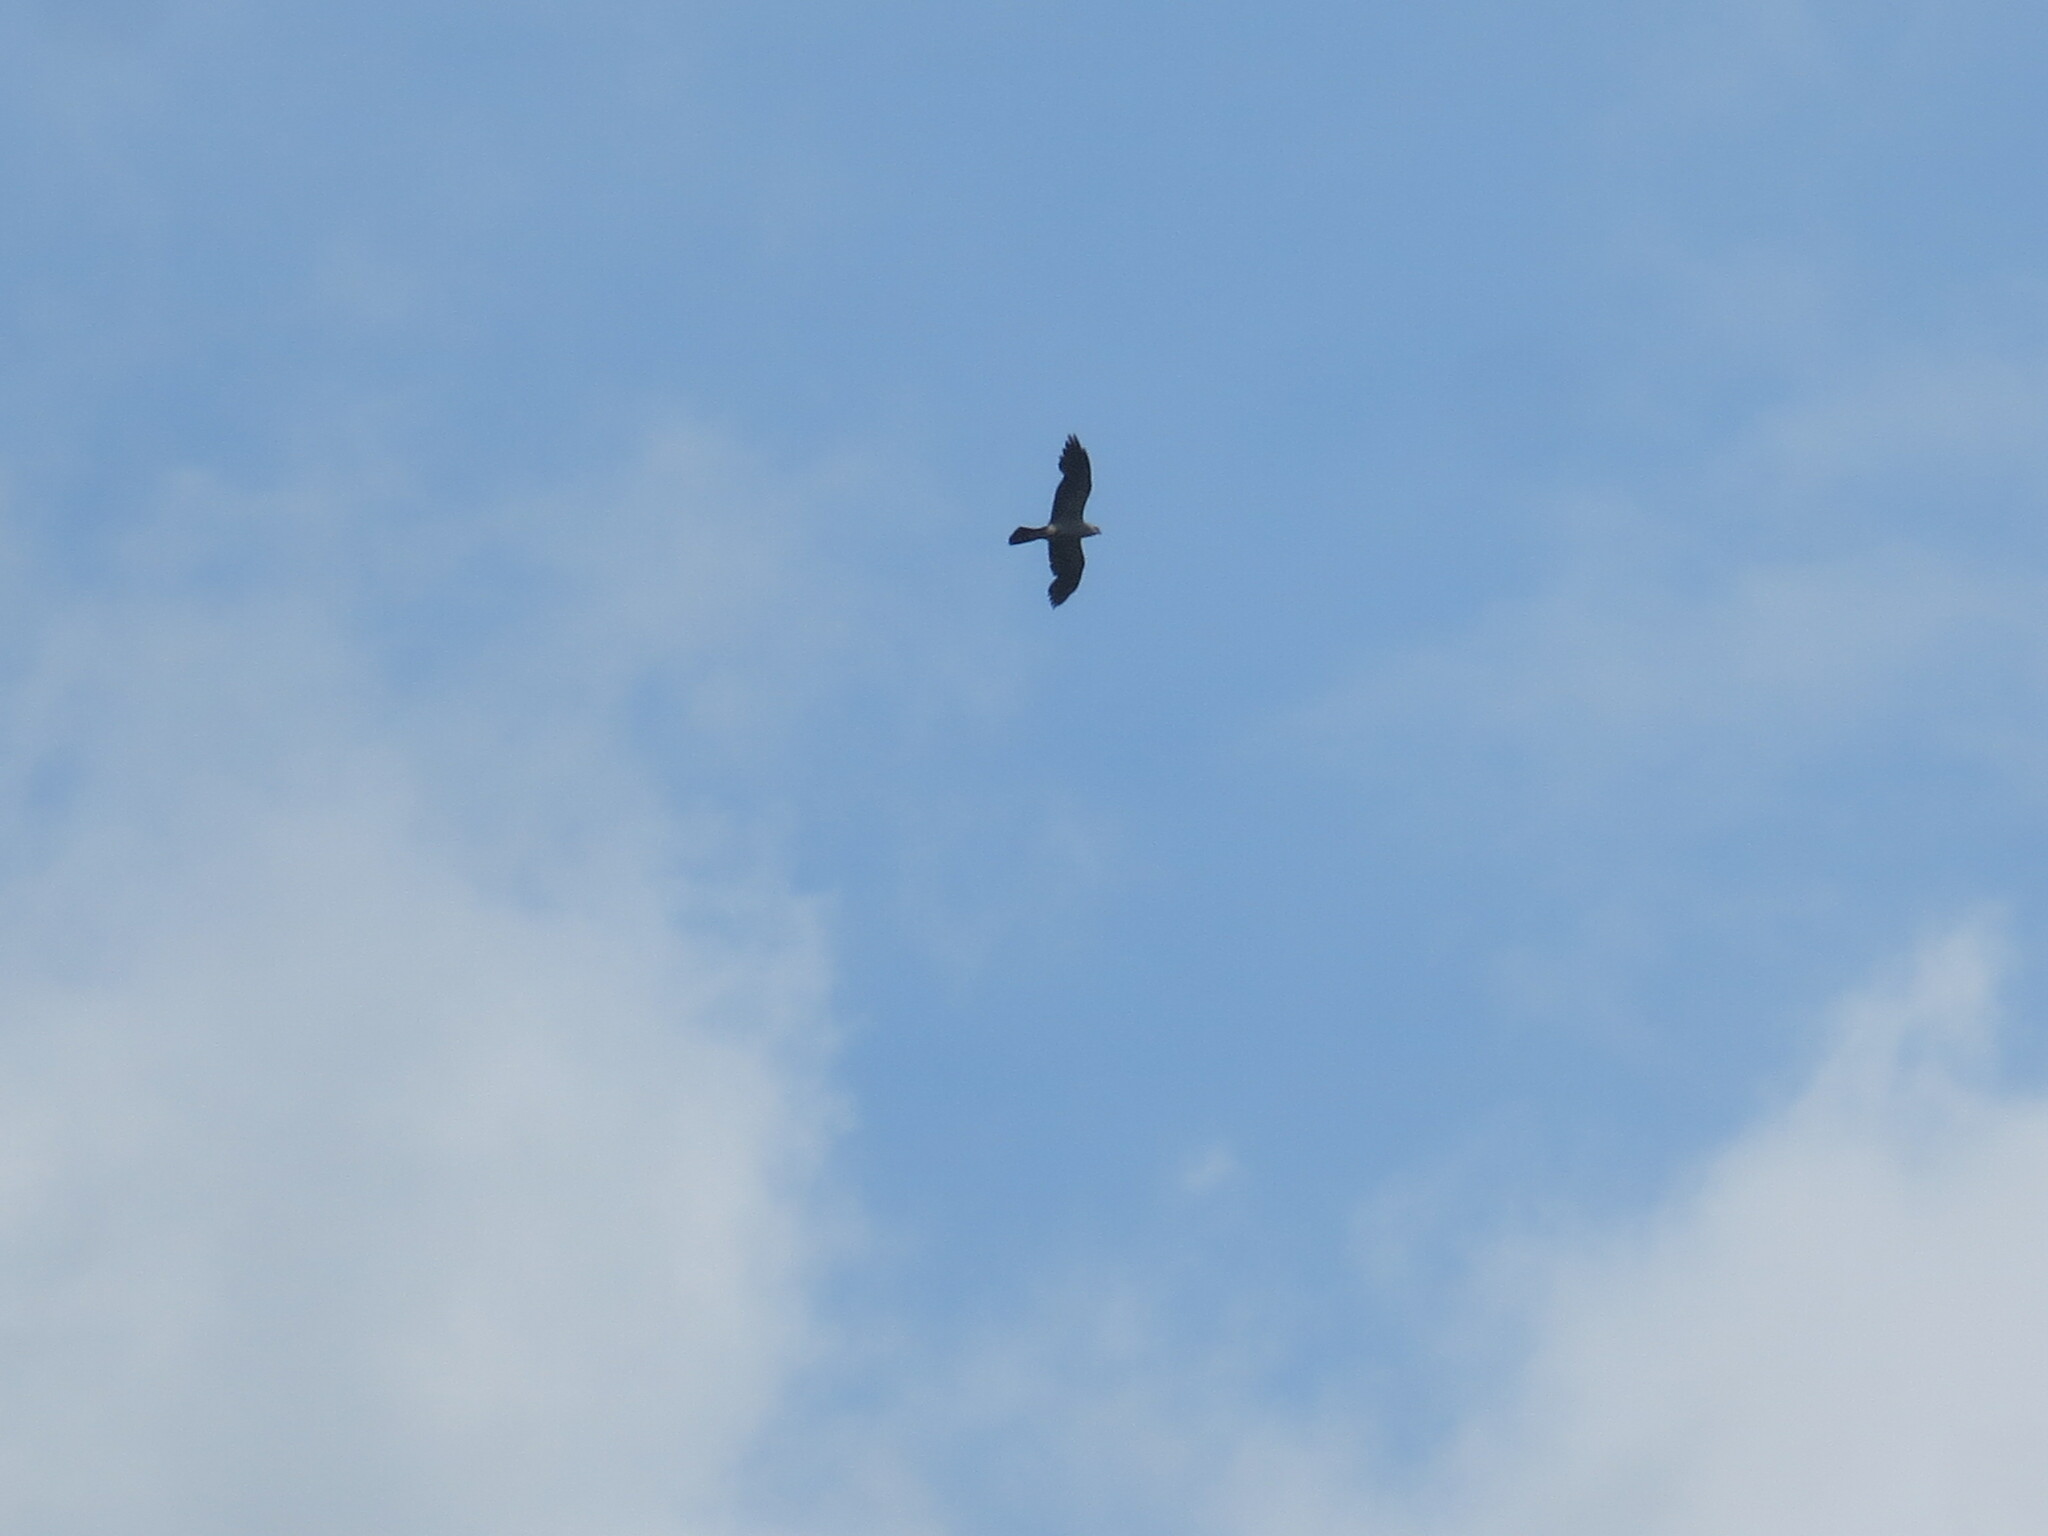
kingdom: Animalia
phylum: Chordata
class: Aves
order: Accipitriformes
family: Accipitridae
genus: Ictinia
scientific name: Ictinia mississippiensis
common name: Mississippi kite
